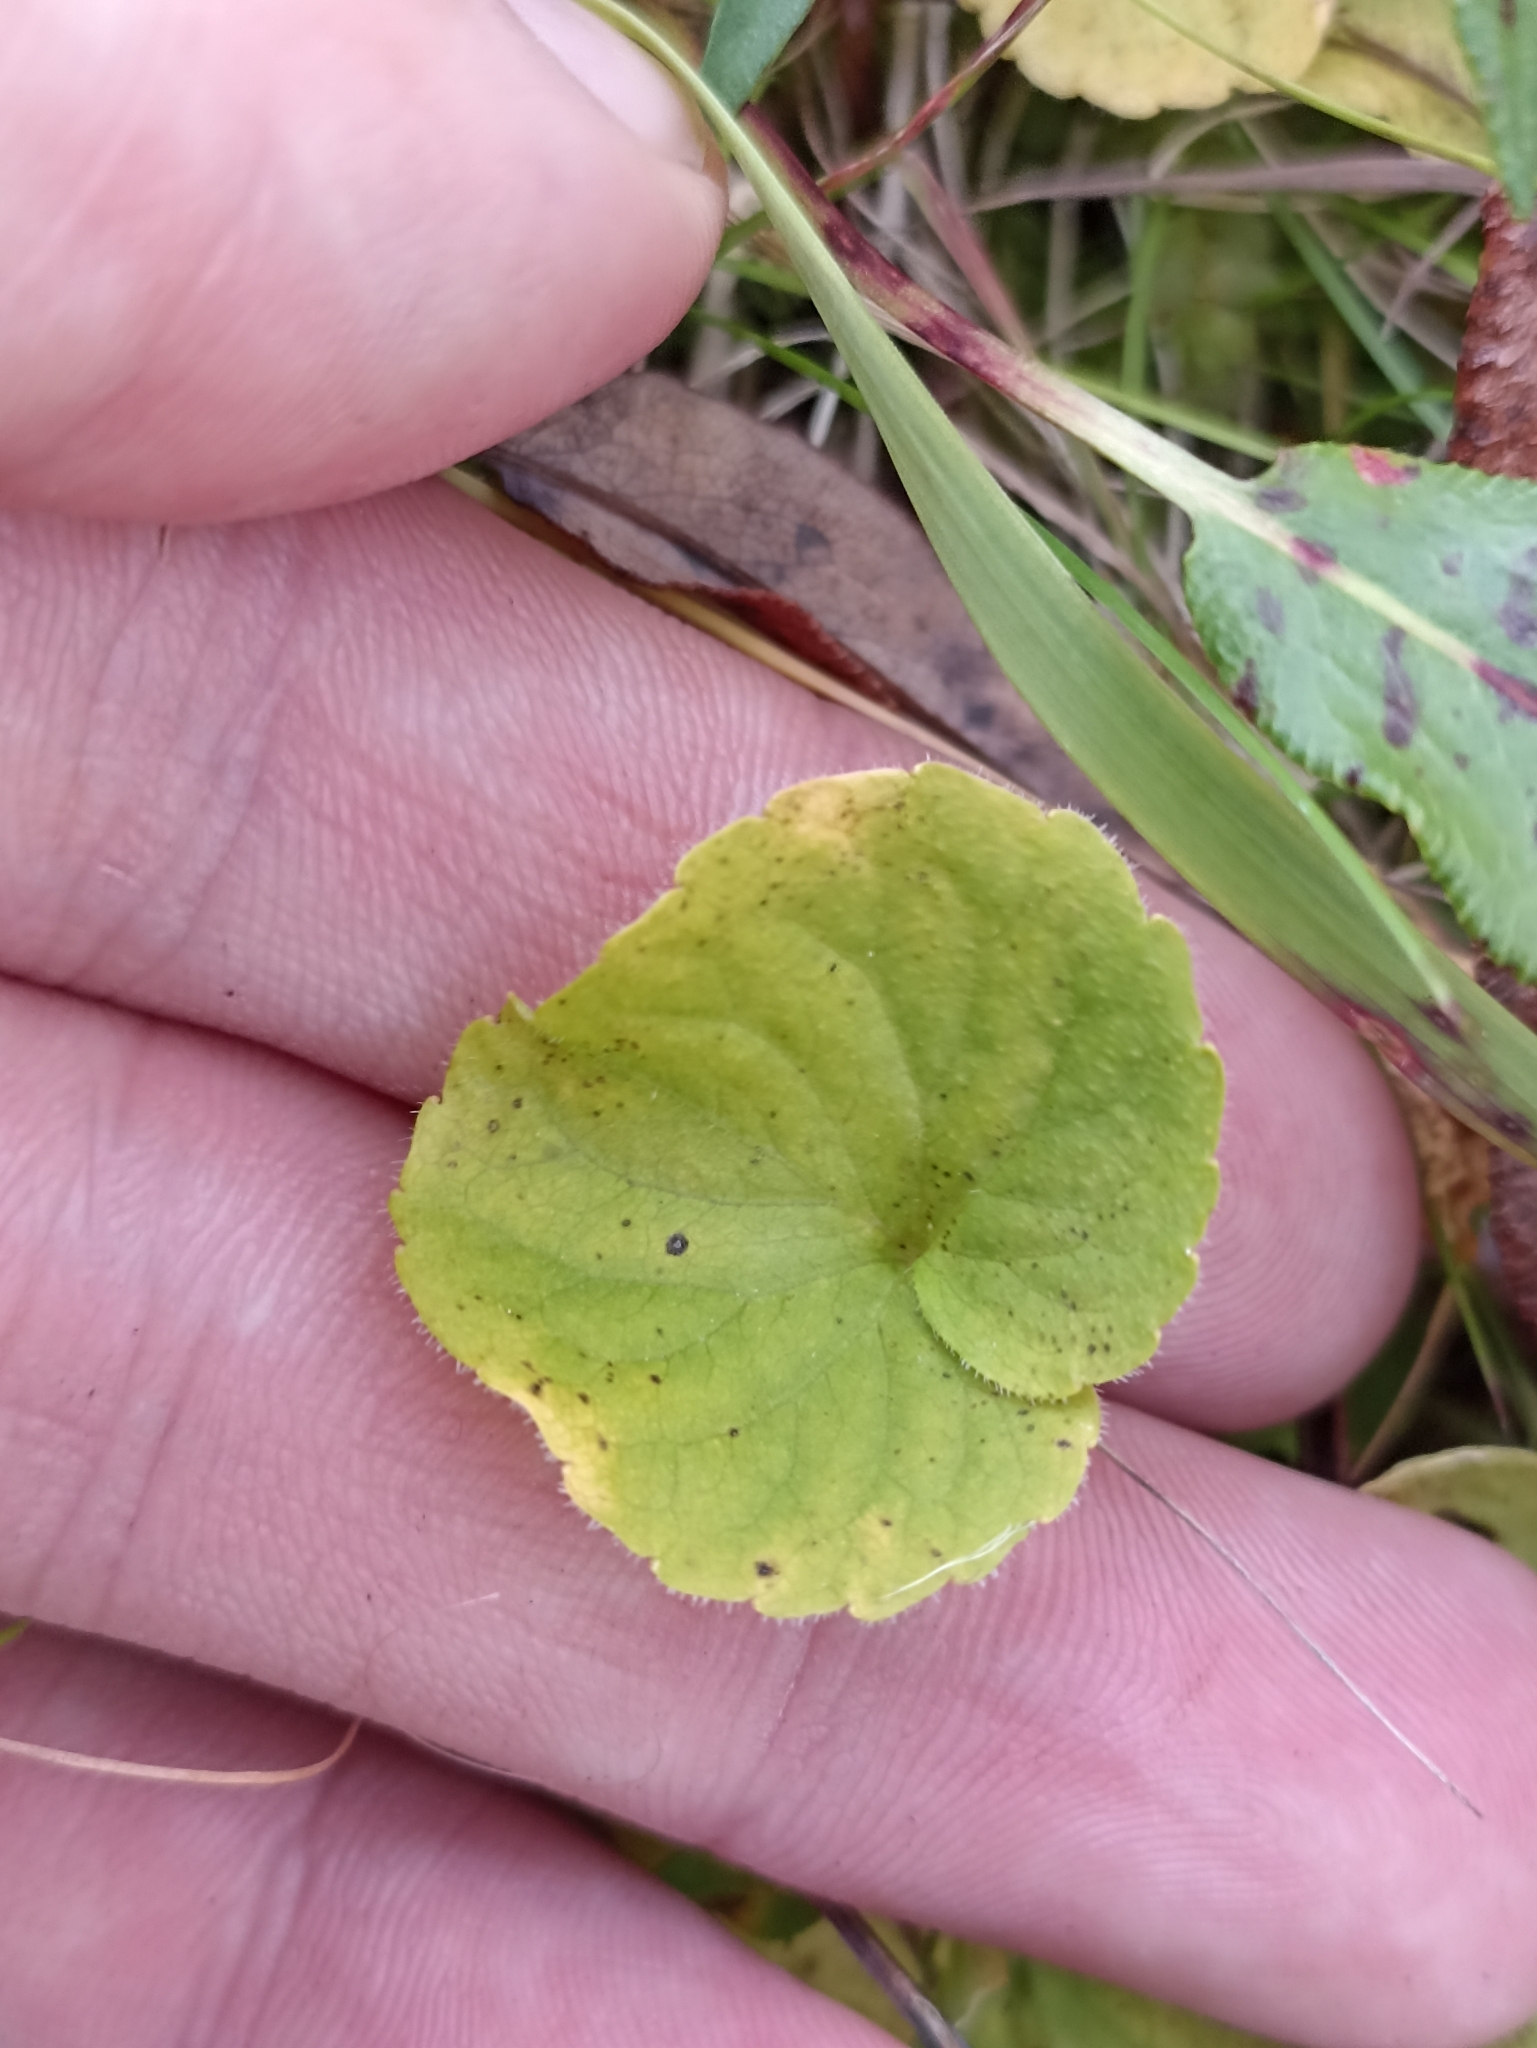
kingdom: Plantae
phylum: Tracheophyta
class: Magnoliopsida
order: Malpighiales
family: Violaceae
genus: Viola
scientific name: Viola biflora
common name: Alpine yellow violet
